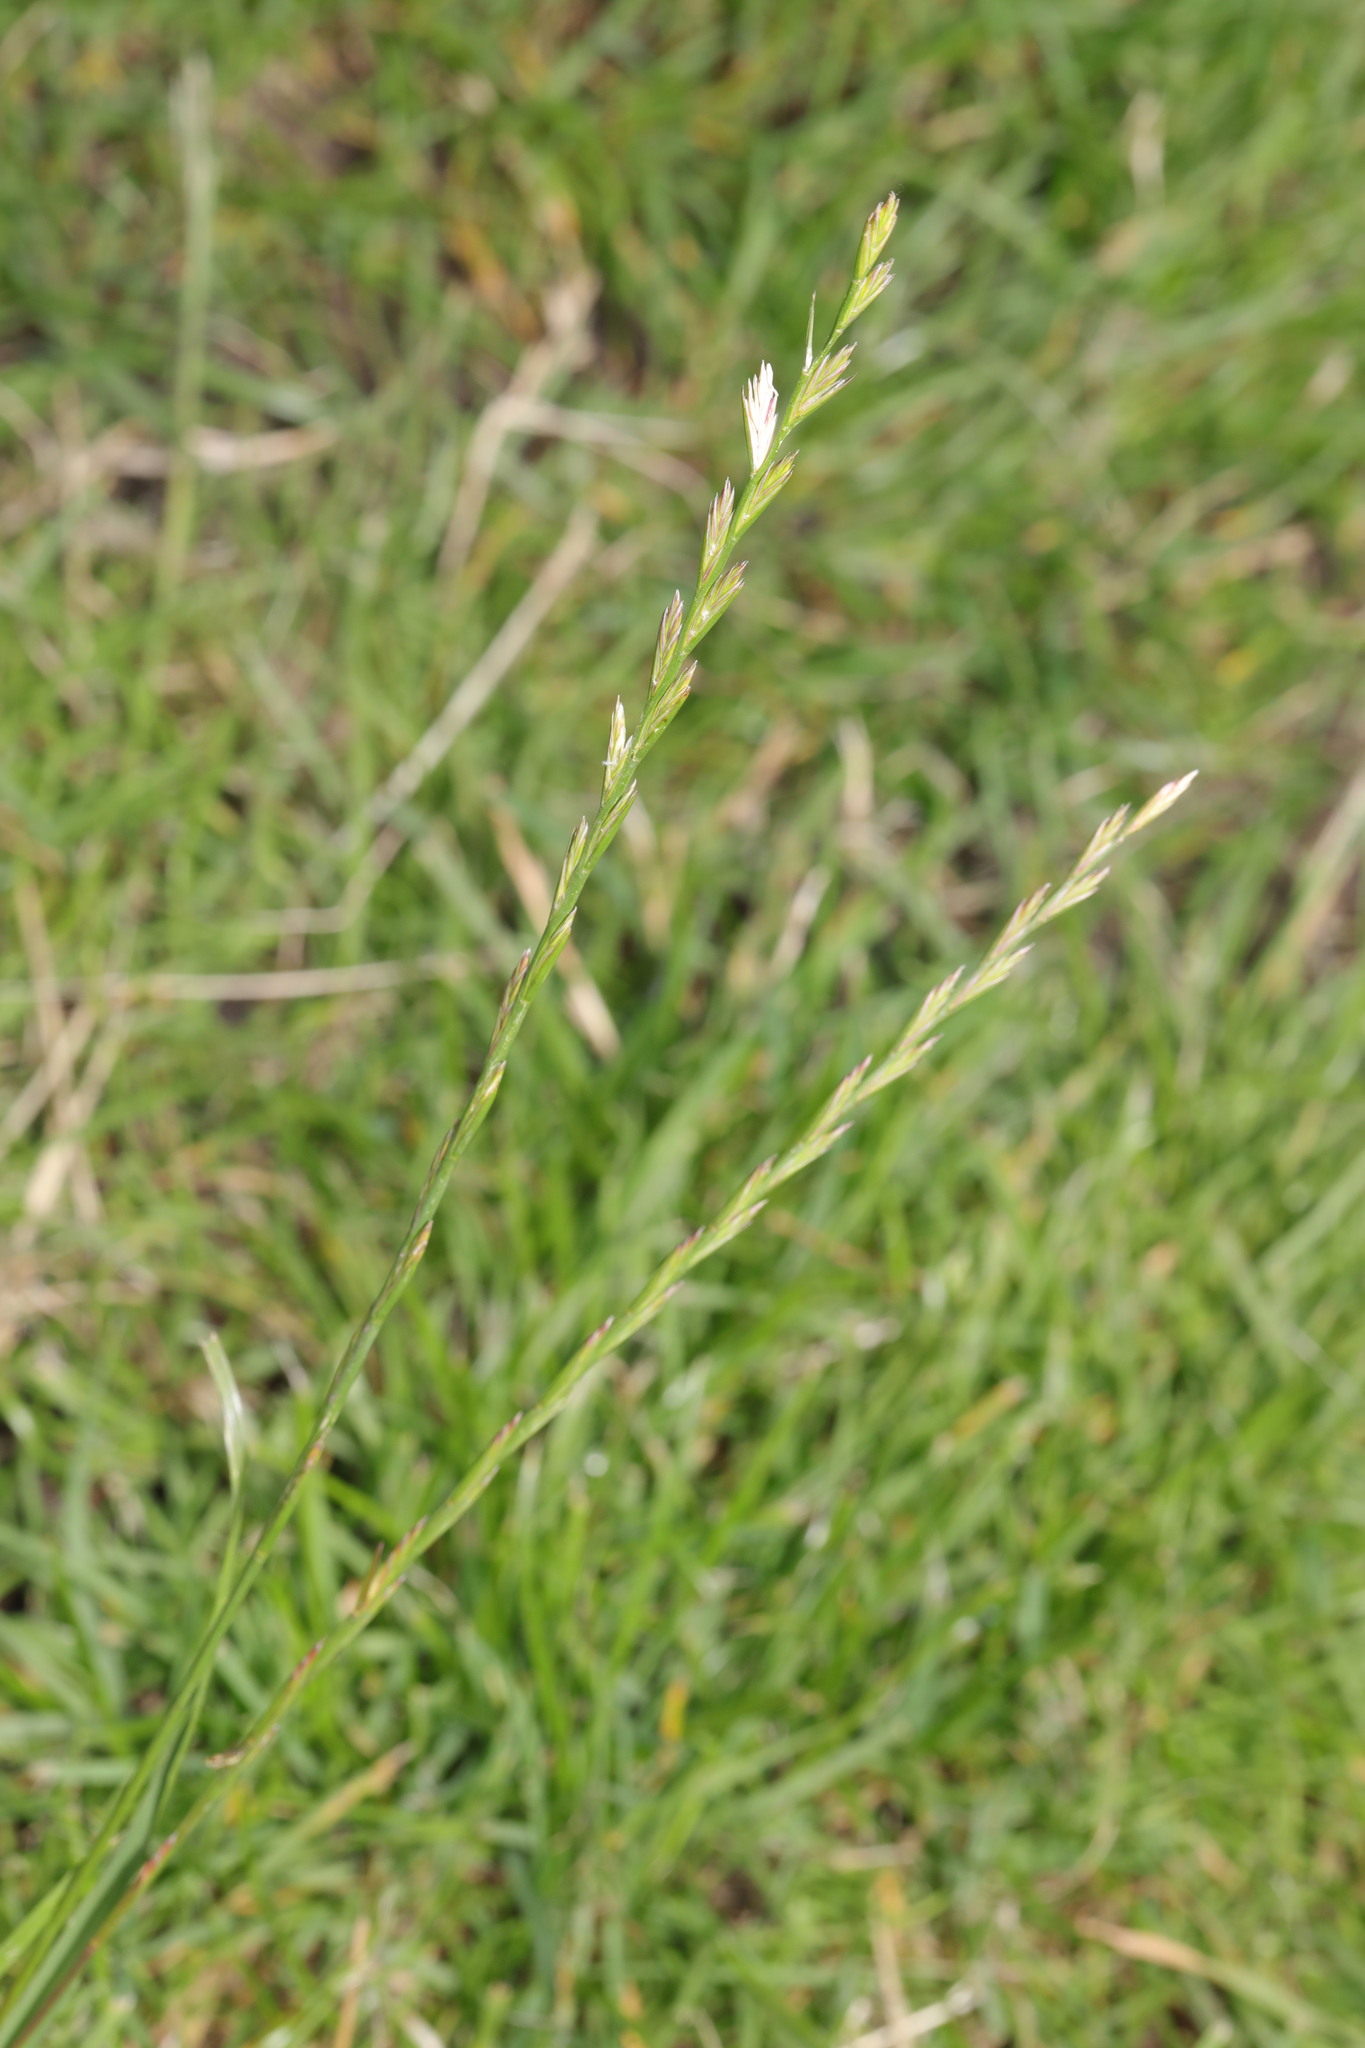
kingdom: Plantae
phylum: Tracheophyta
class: Liliopsida
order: Poales
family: Poaceae
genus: Lolium
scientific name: Lolium perenne
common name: Perennial ryegrass
